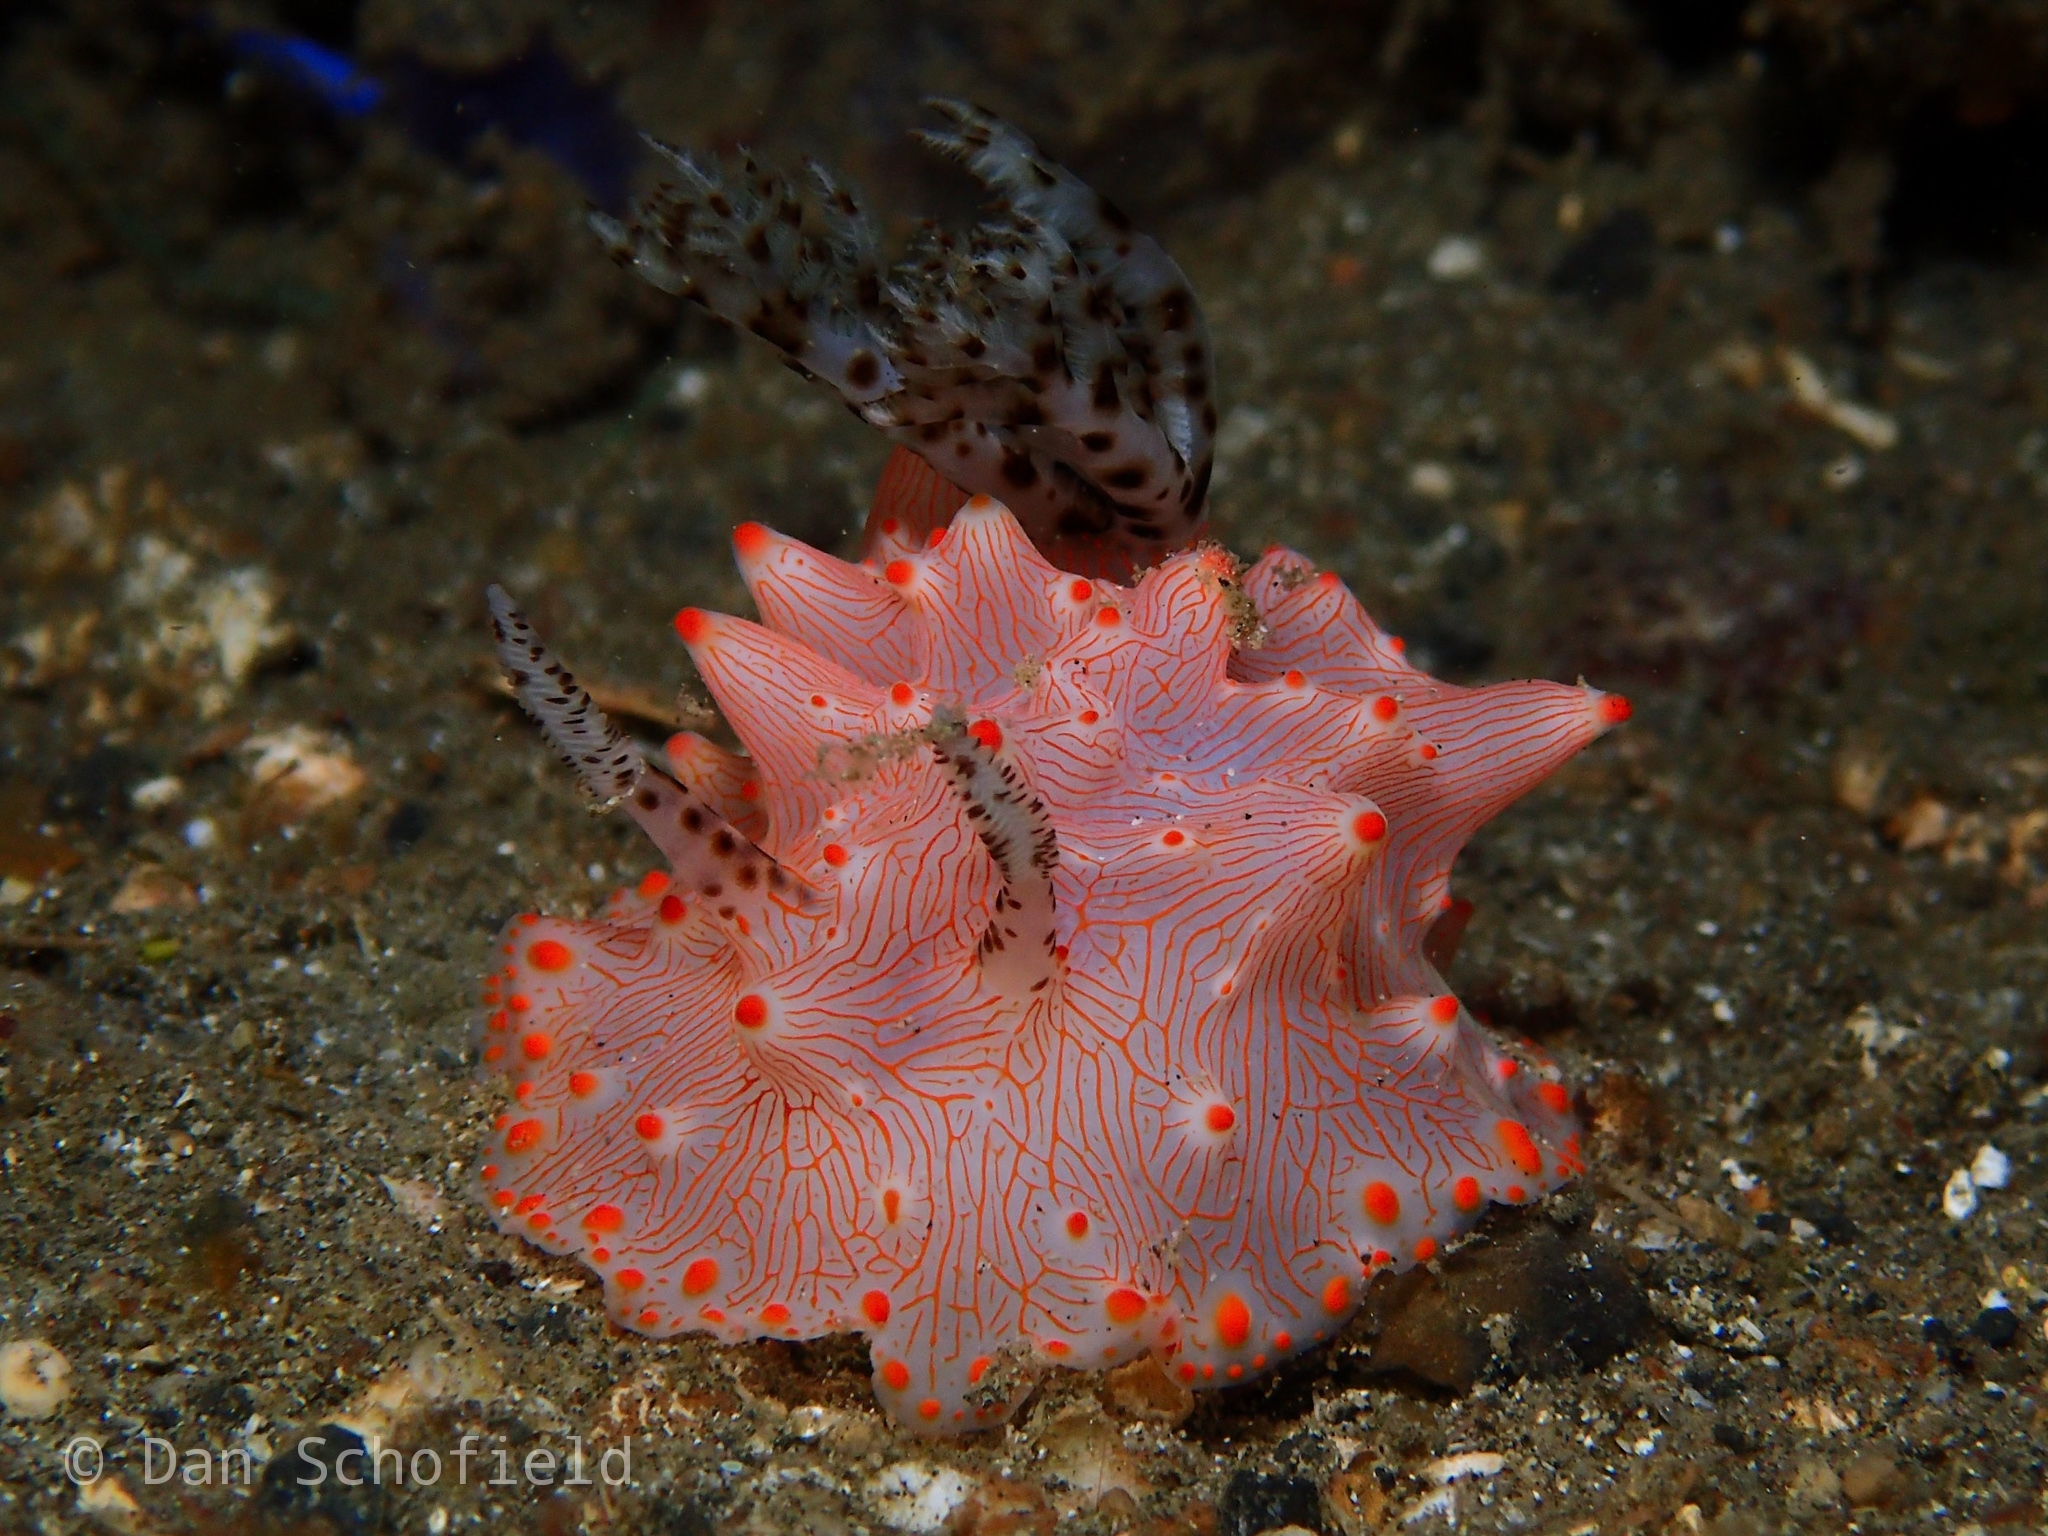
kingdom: Animalia
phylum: Mollusca
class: Gastropoda
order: Nudibranchia
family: Discodorididae
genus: Halgerda
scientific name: Halgerda batangas
